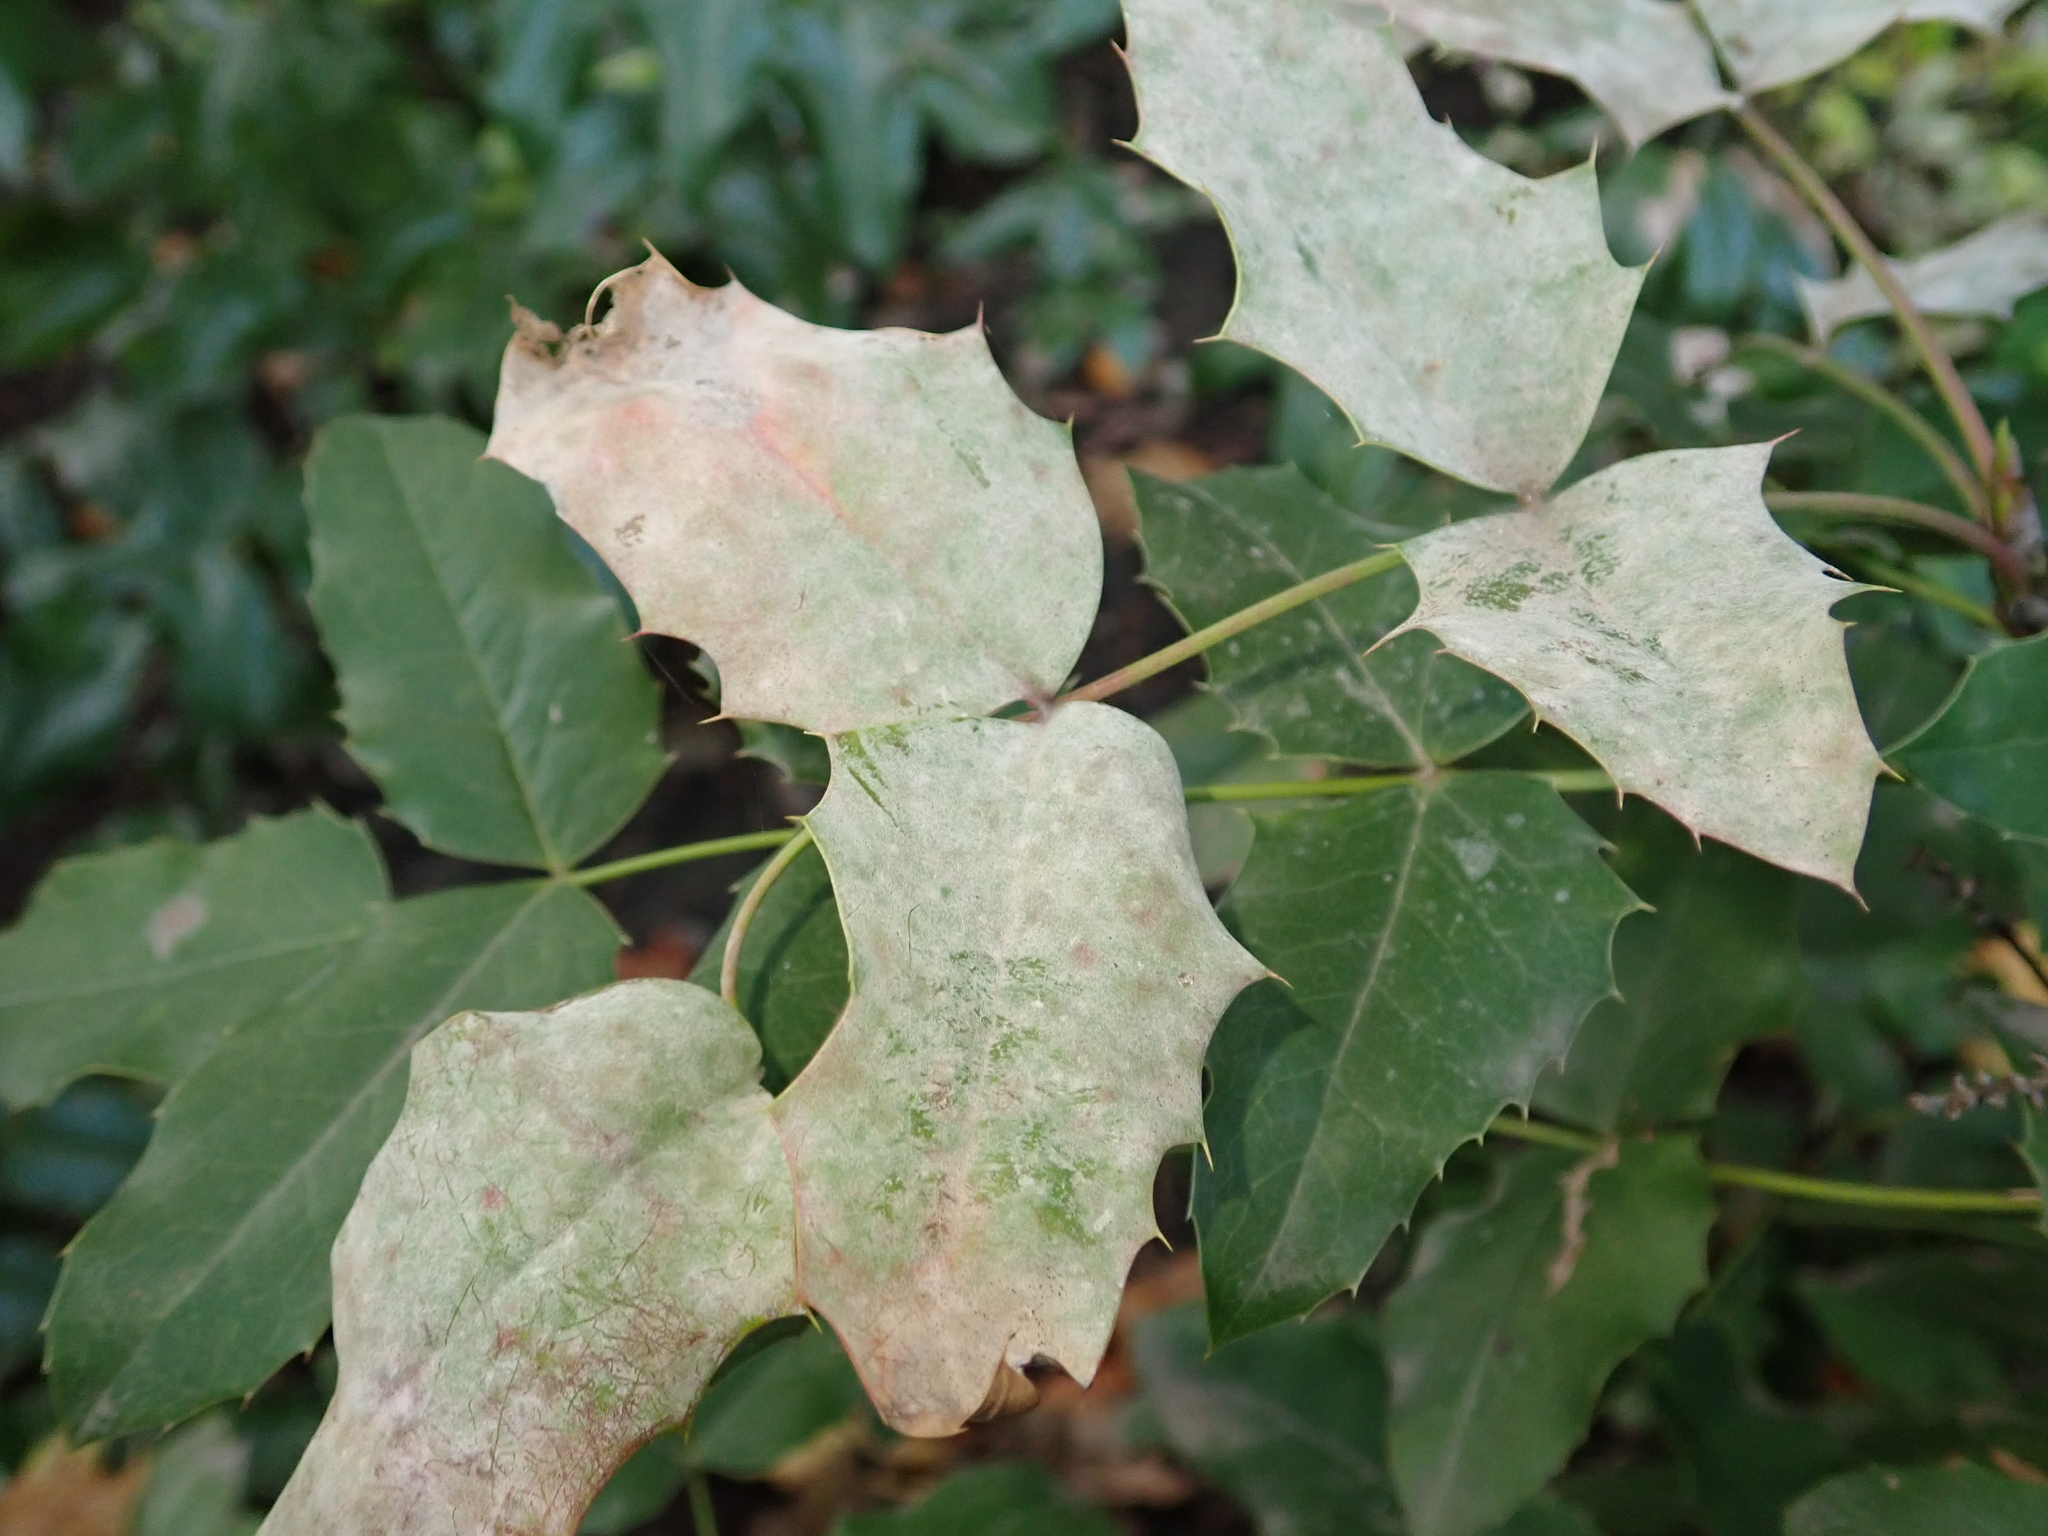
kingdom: Fungi
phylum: Ascomycota
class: Leotiomycetes
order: Helotiales
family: Erysiphaceae
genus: Erysiphe
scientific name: Erysiphe berberidis
